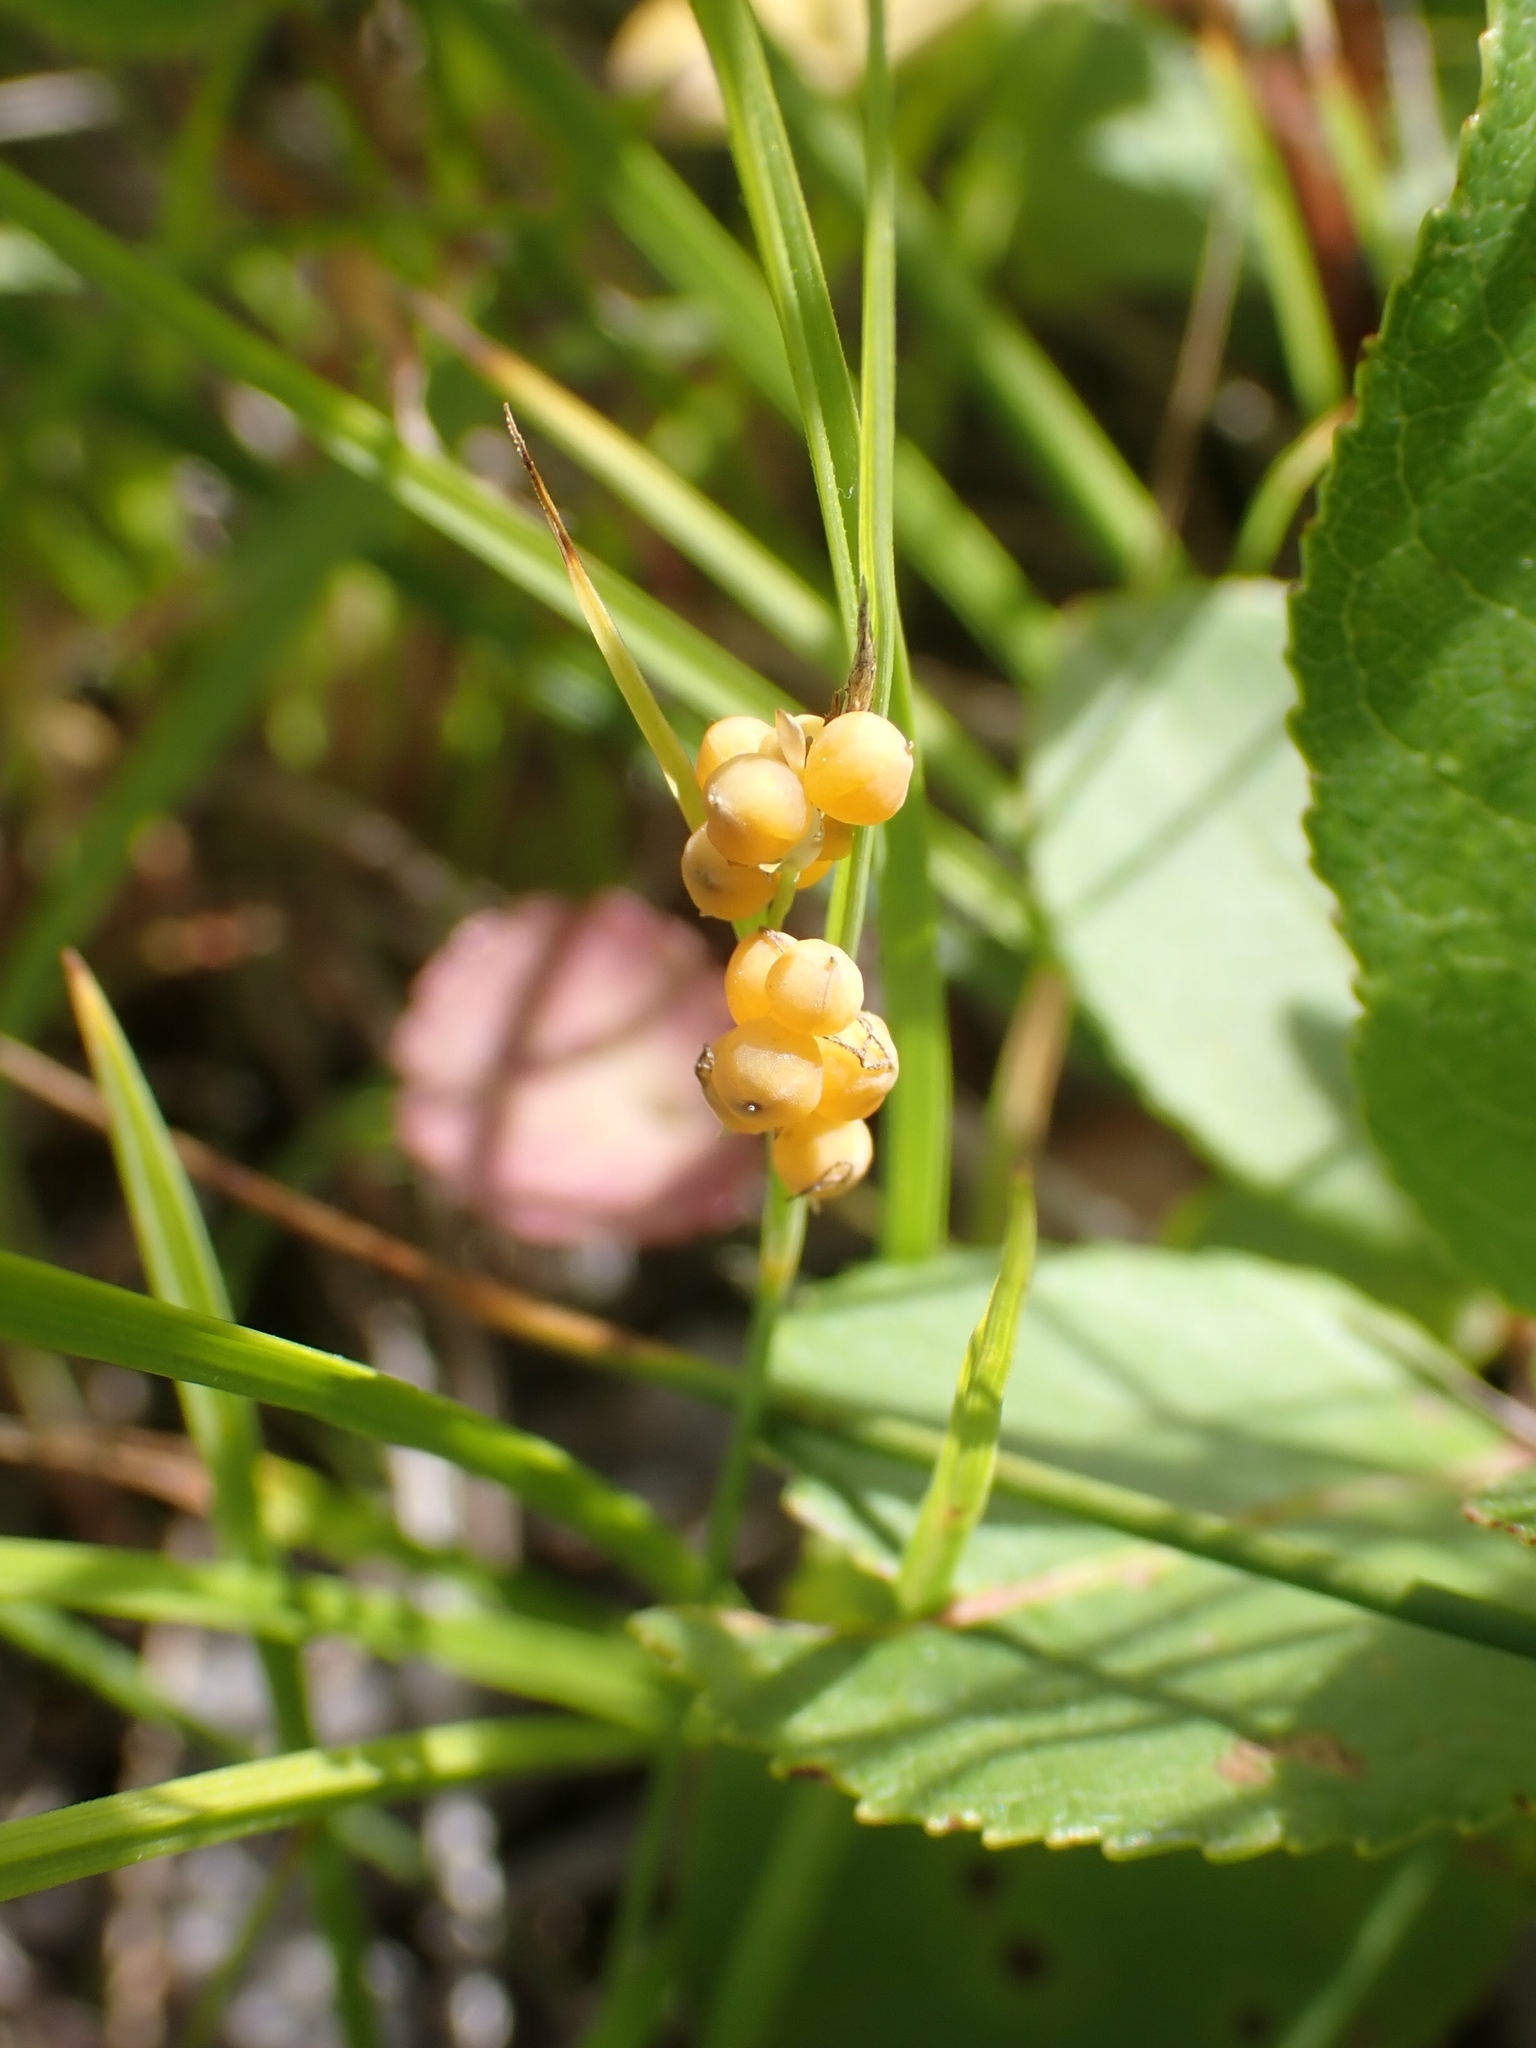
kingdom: Plantae
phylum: Tracheophyta
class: Liliopsida
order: Poales
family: Cyperaceae
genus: Carex
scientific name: Carex aurea
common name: Golden sedge
